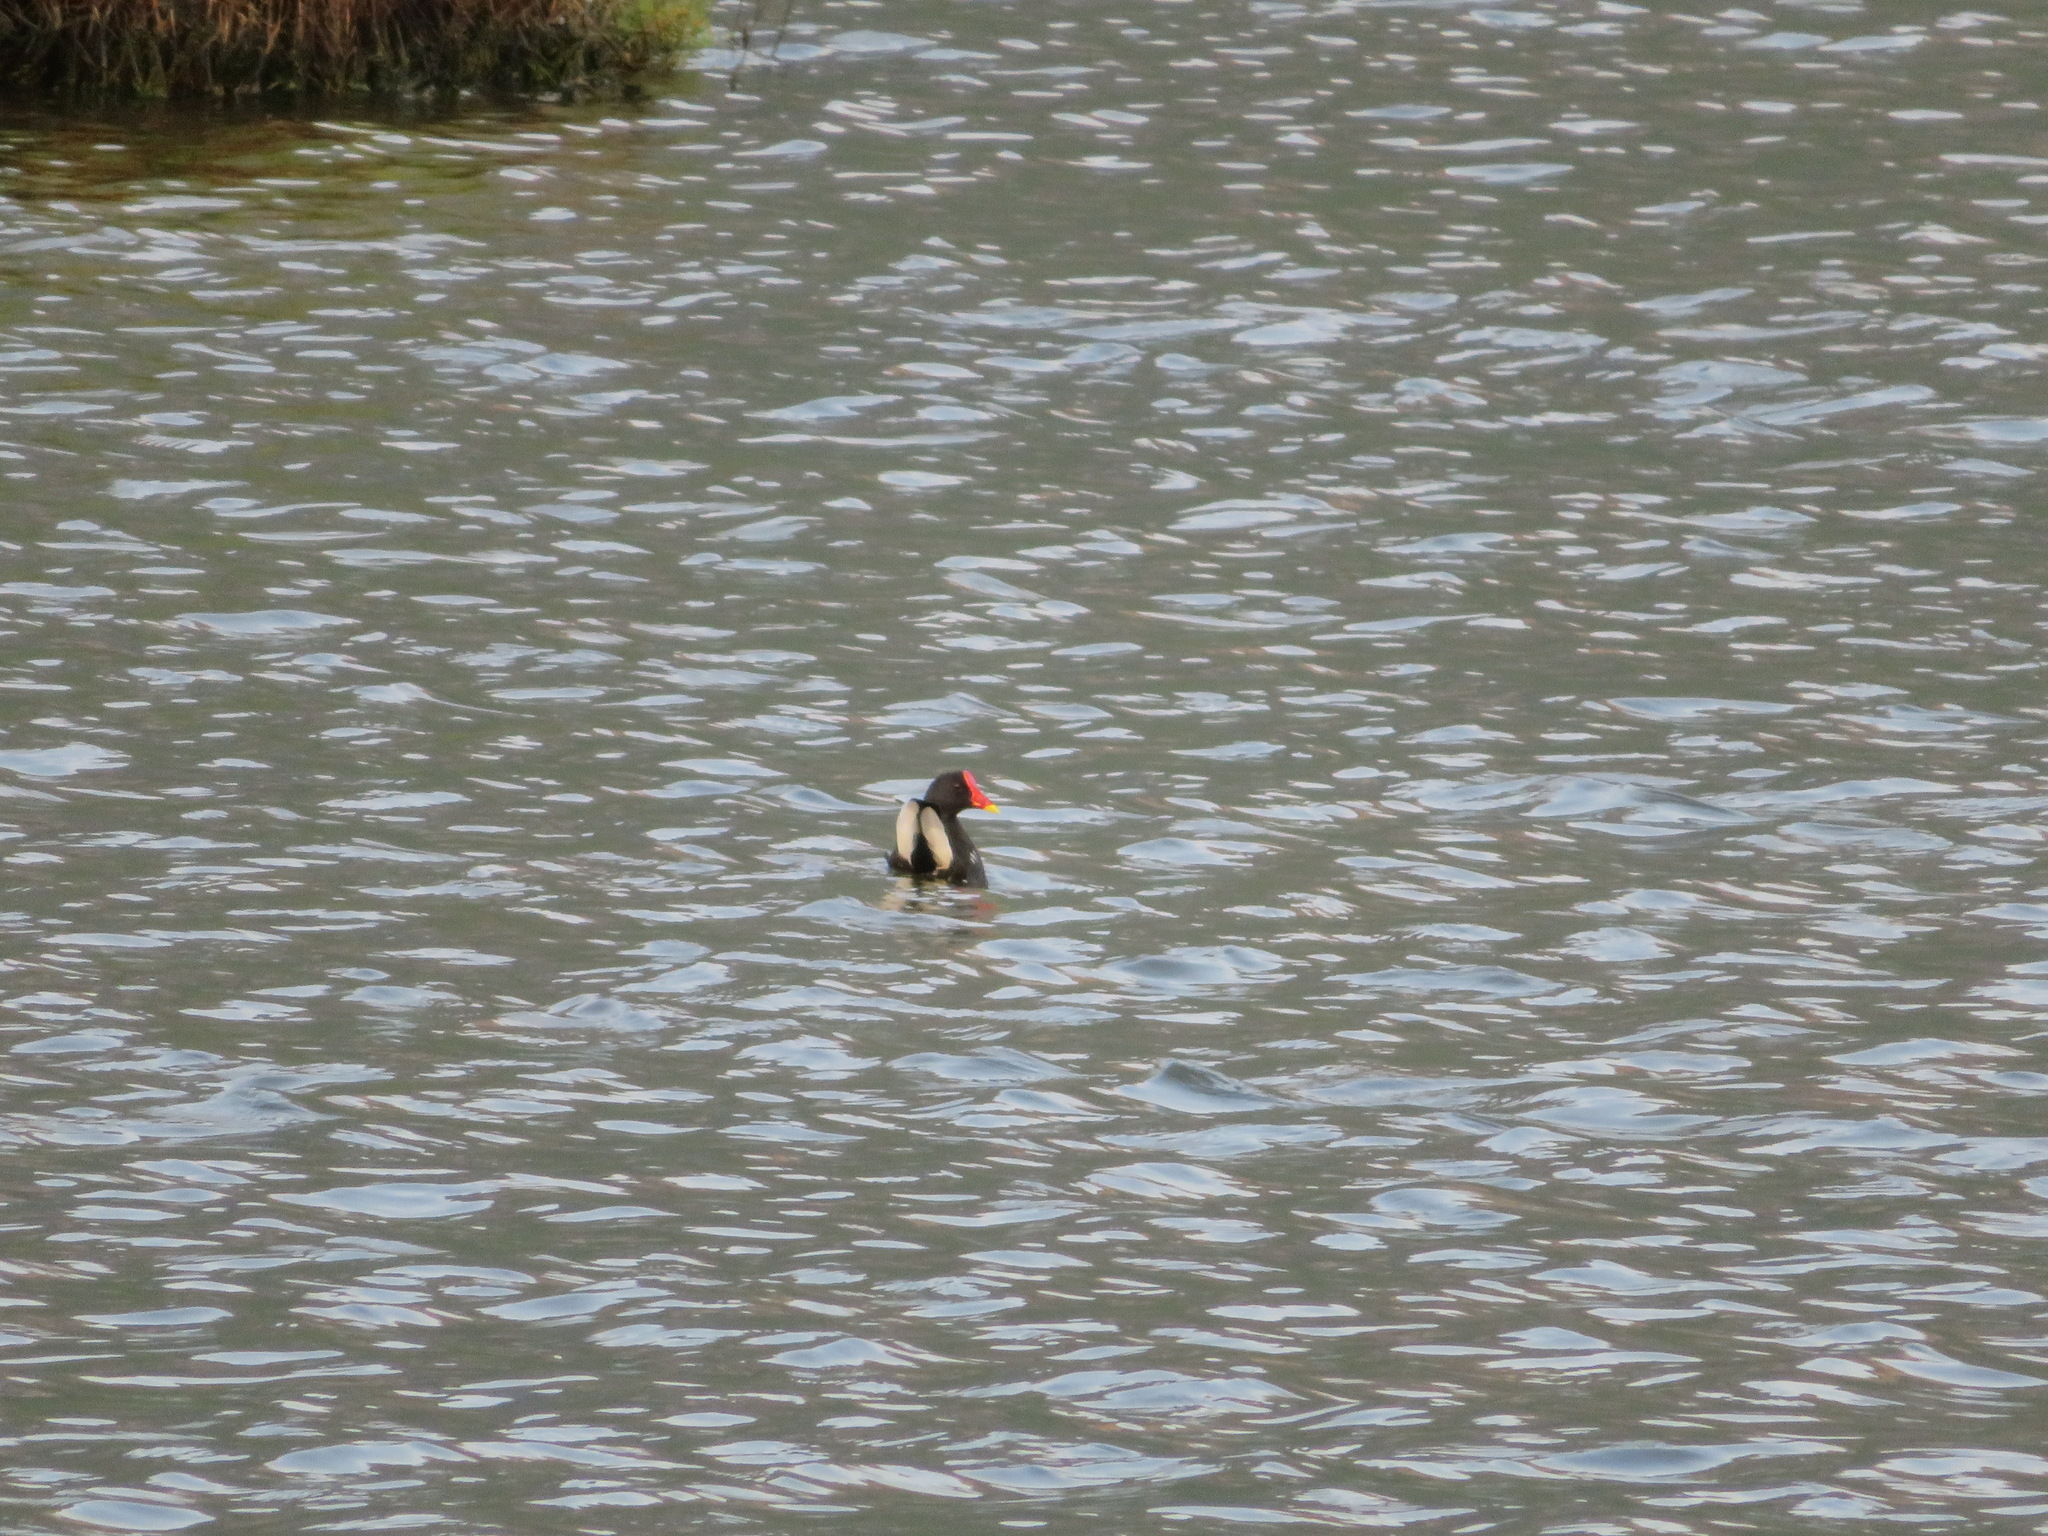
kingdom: Animalia
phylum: Chordata
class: Aves
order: Gruiformes
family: Rallidae
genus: Gallinula
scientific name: Gallinula chloropus
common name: Common moorhen
